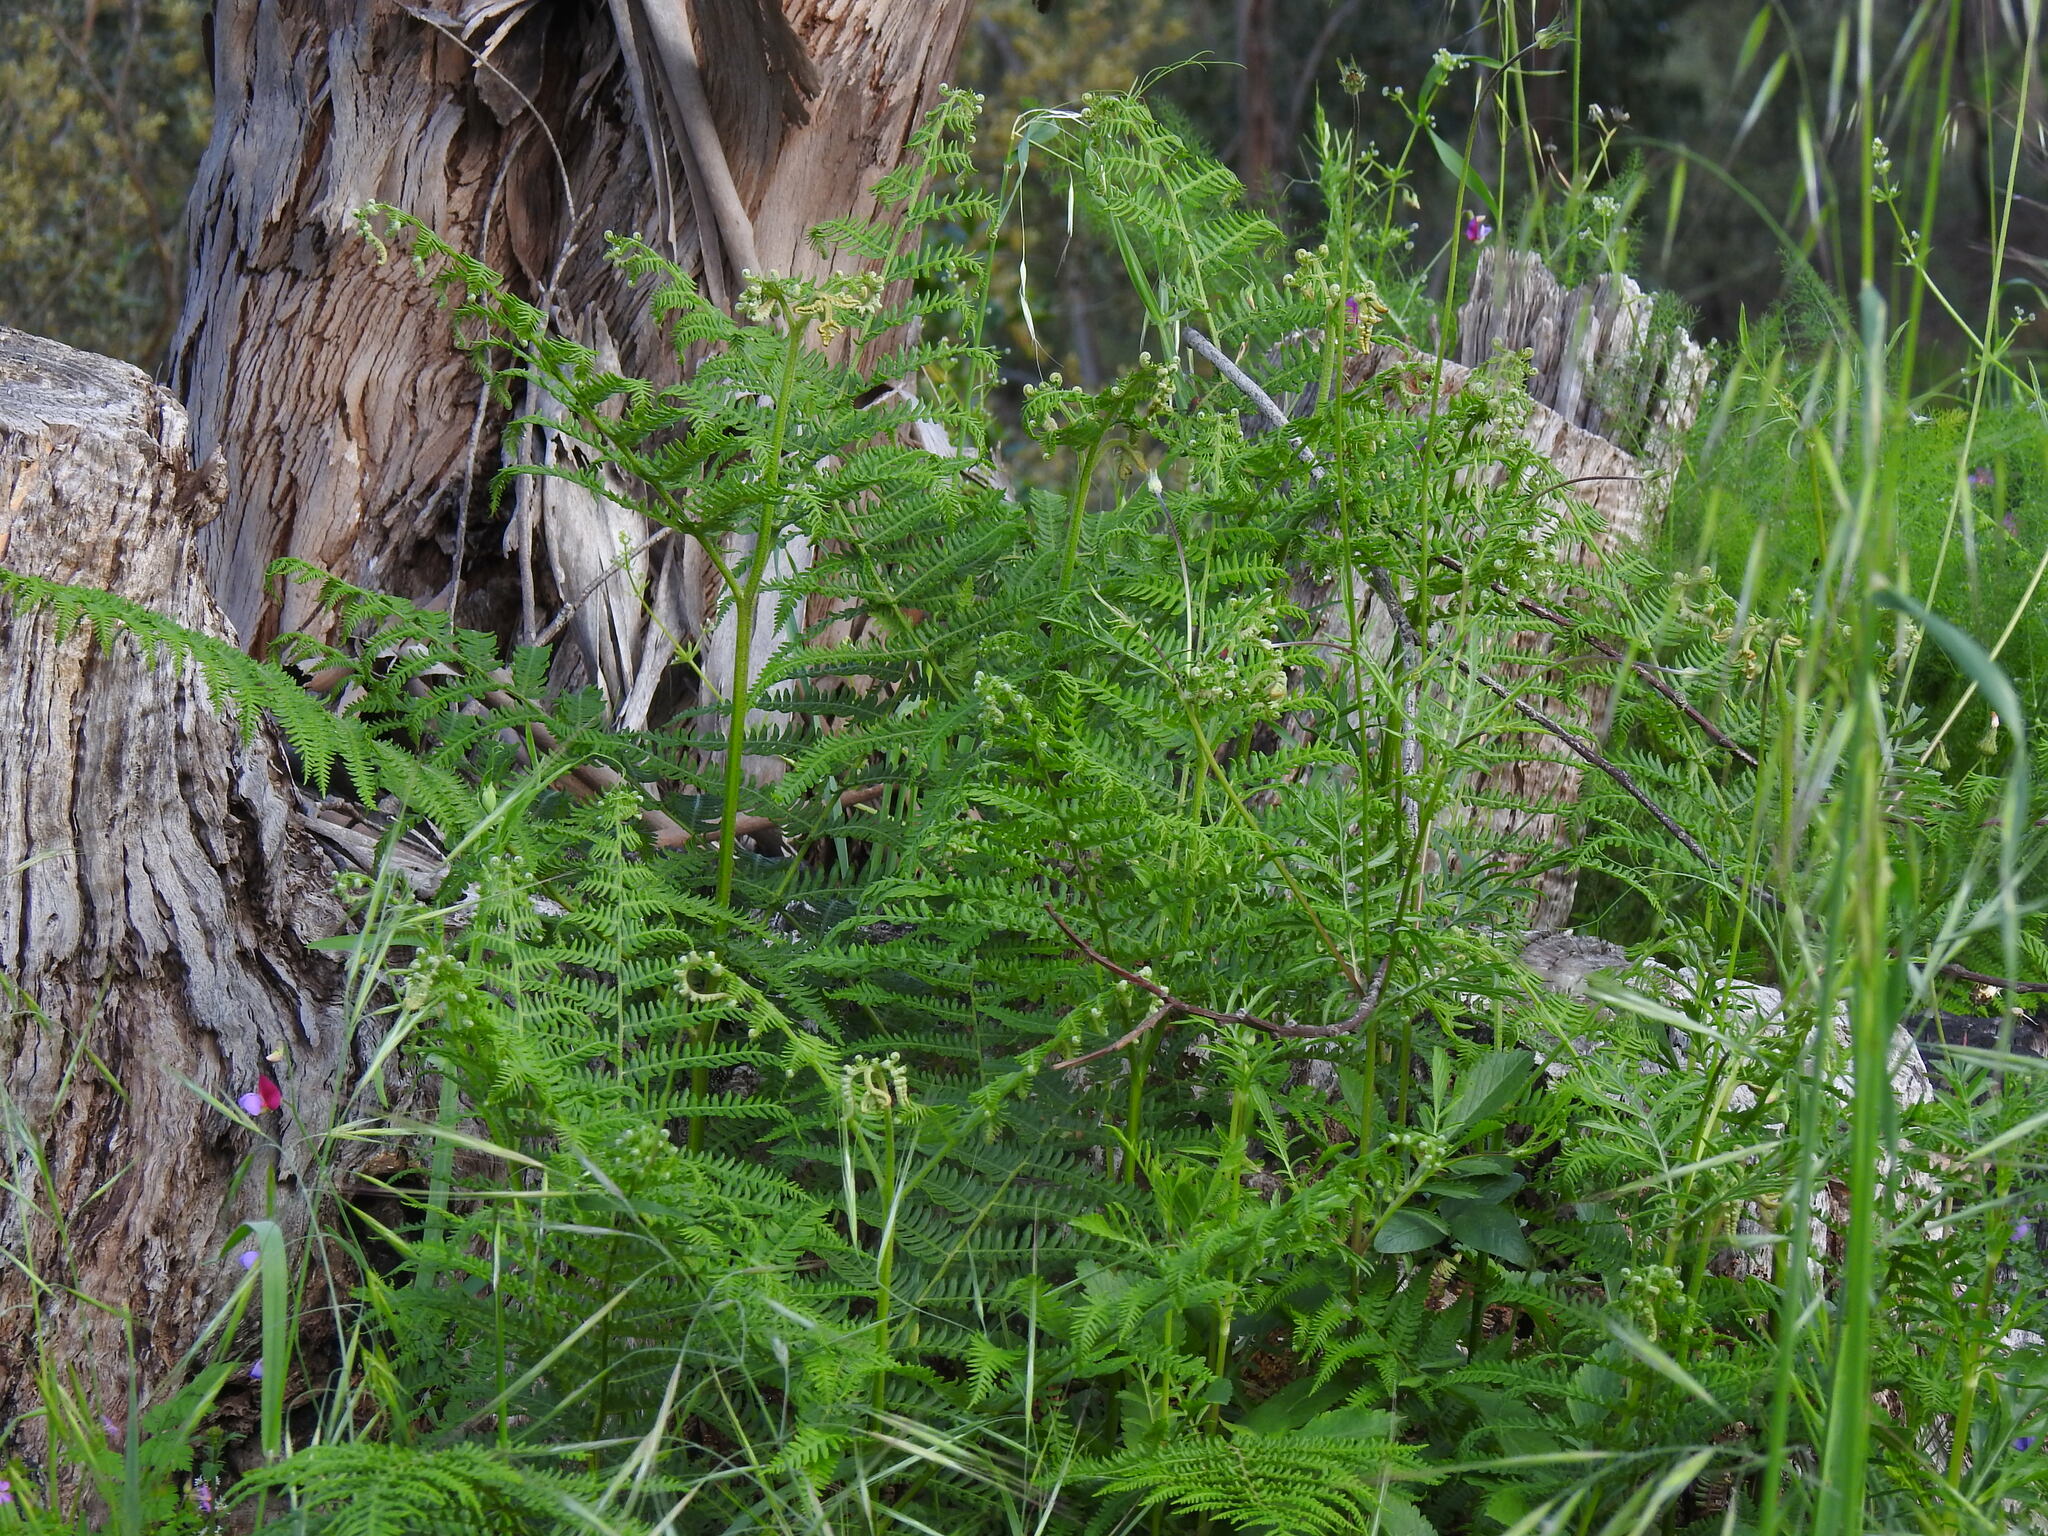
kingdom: Plantae
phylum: Tracheophyta
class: Polypodiopsida
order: Polypodiales
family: Dennstaedtiaceae
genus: Pteridium
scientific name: Pteridium aquilinum
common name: Bracken
